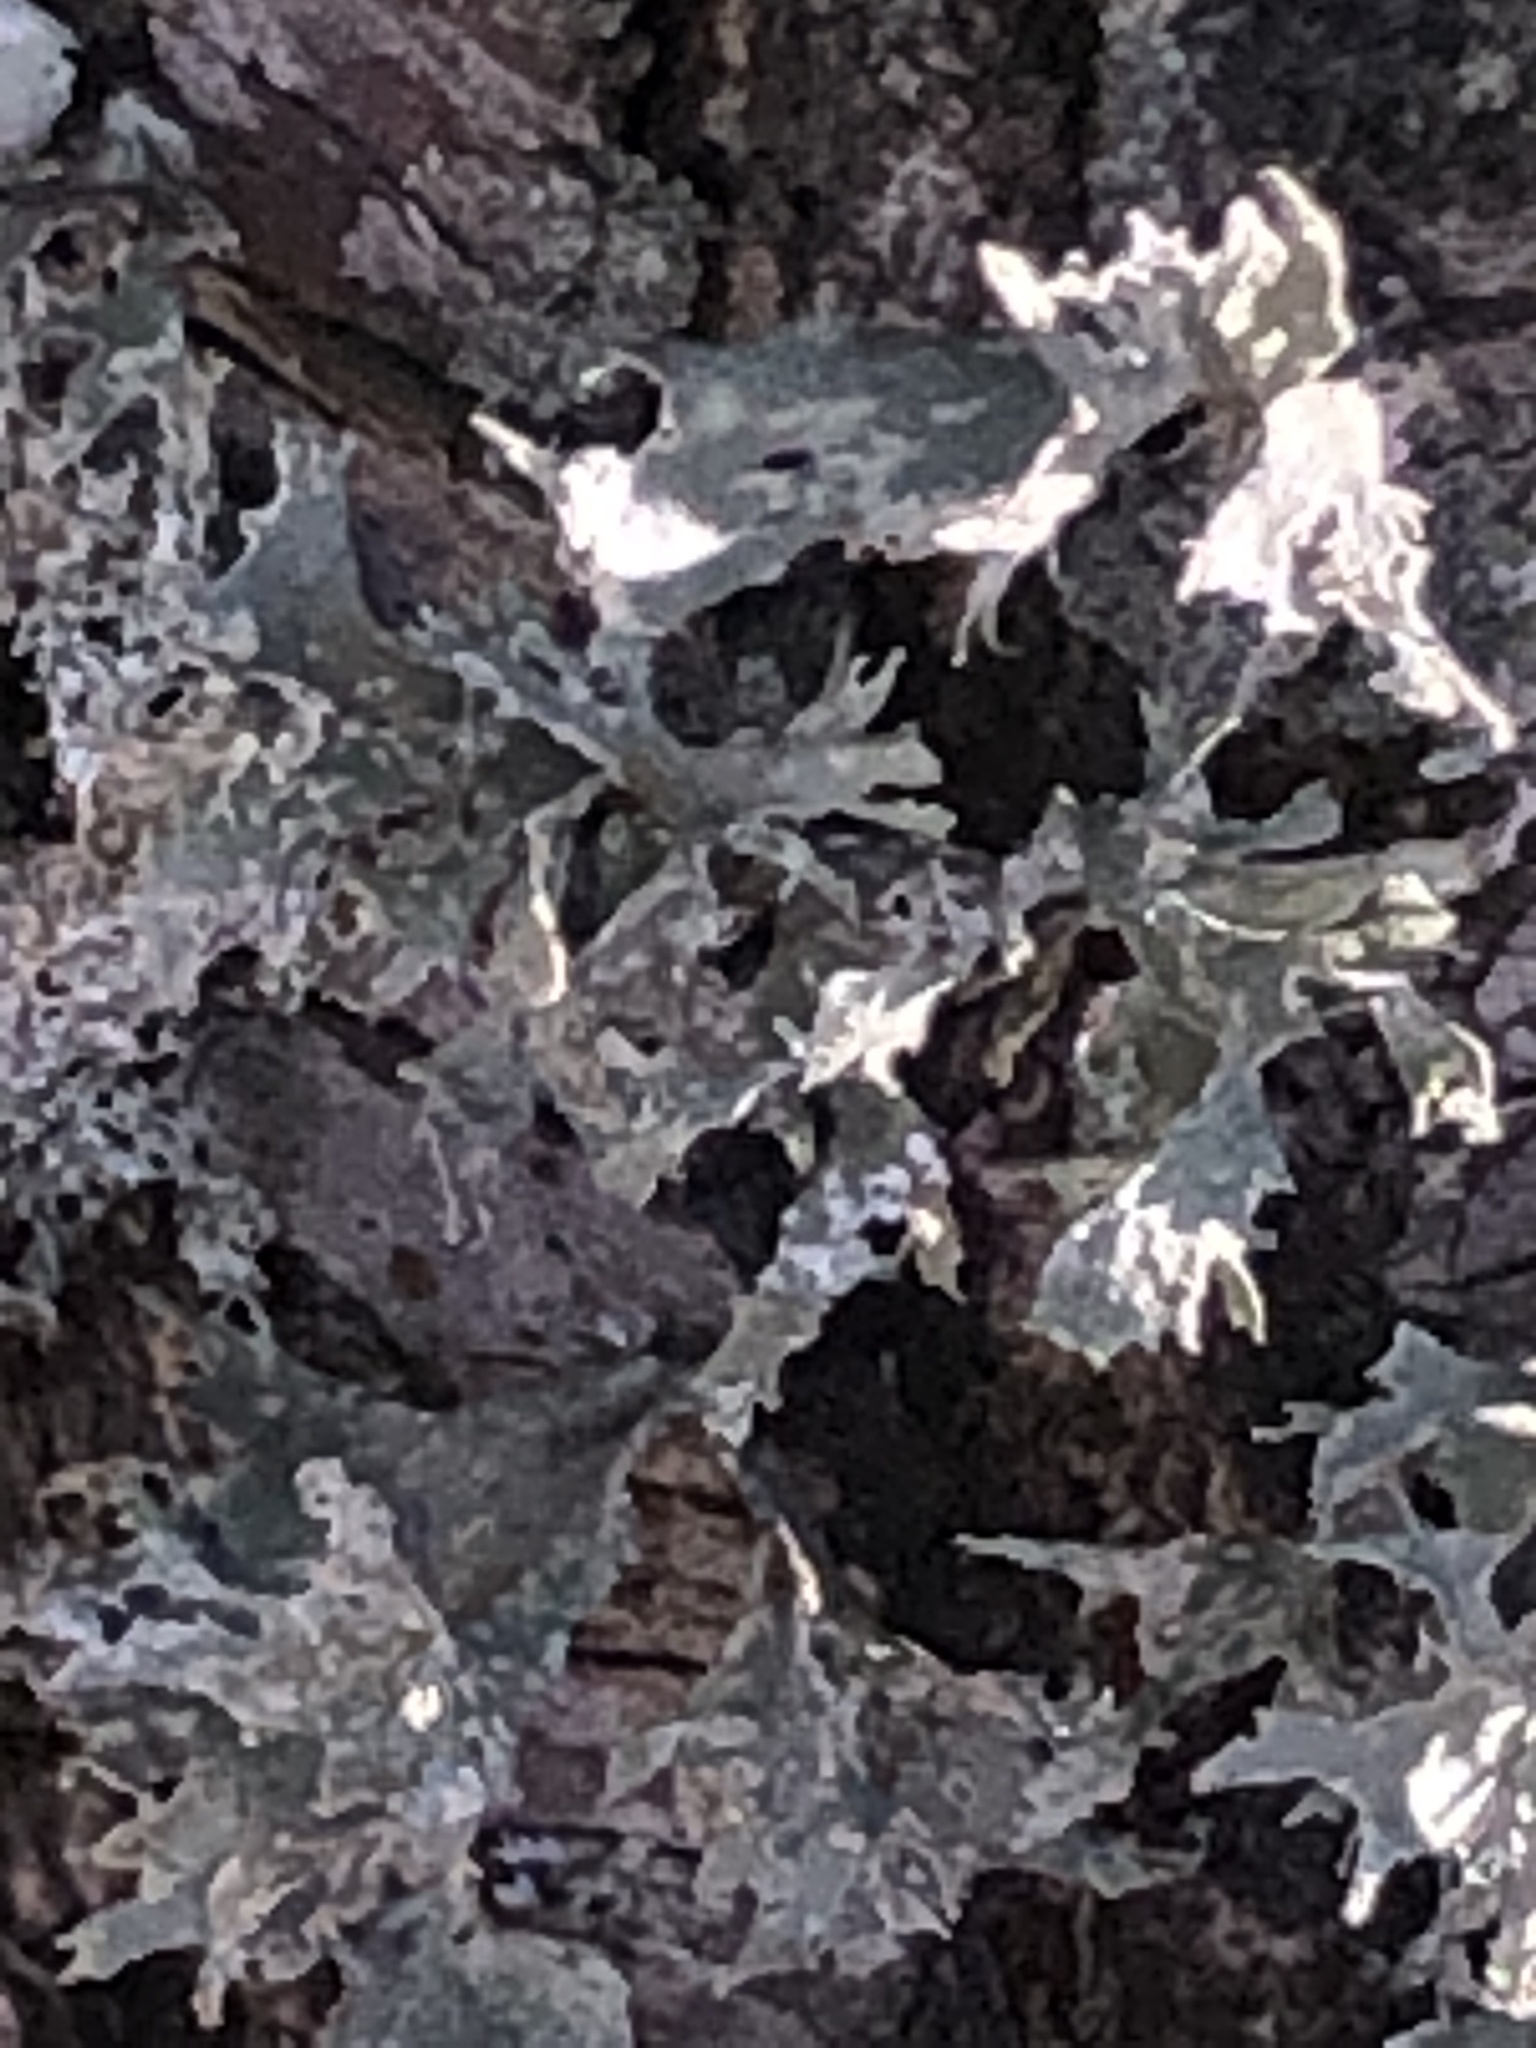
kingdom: Fungi
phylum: Ascomycota
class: Lecanoromycetes
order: Lecanorales
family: Ramalinaceae
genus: Ramalina
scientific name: Ramalina
